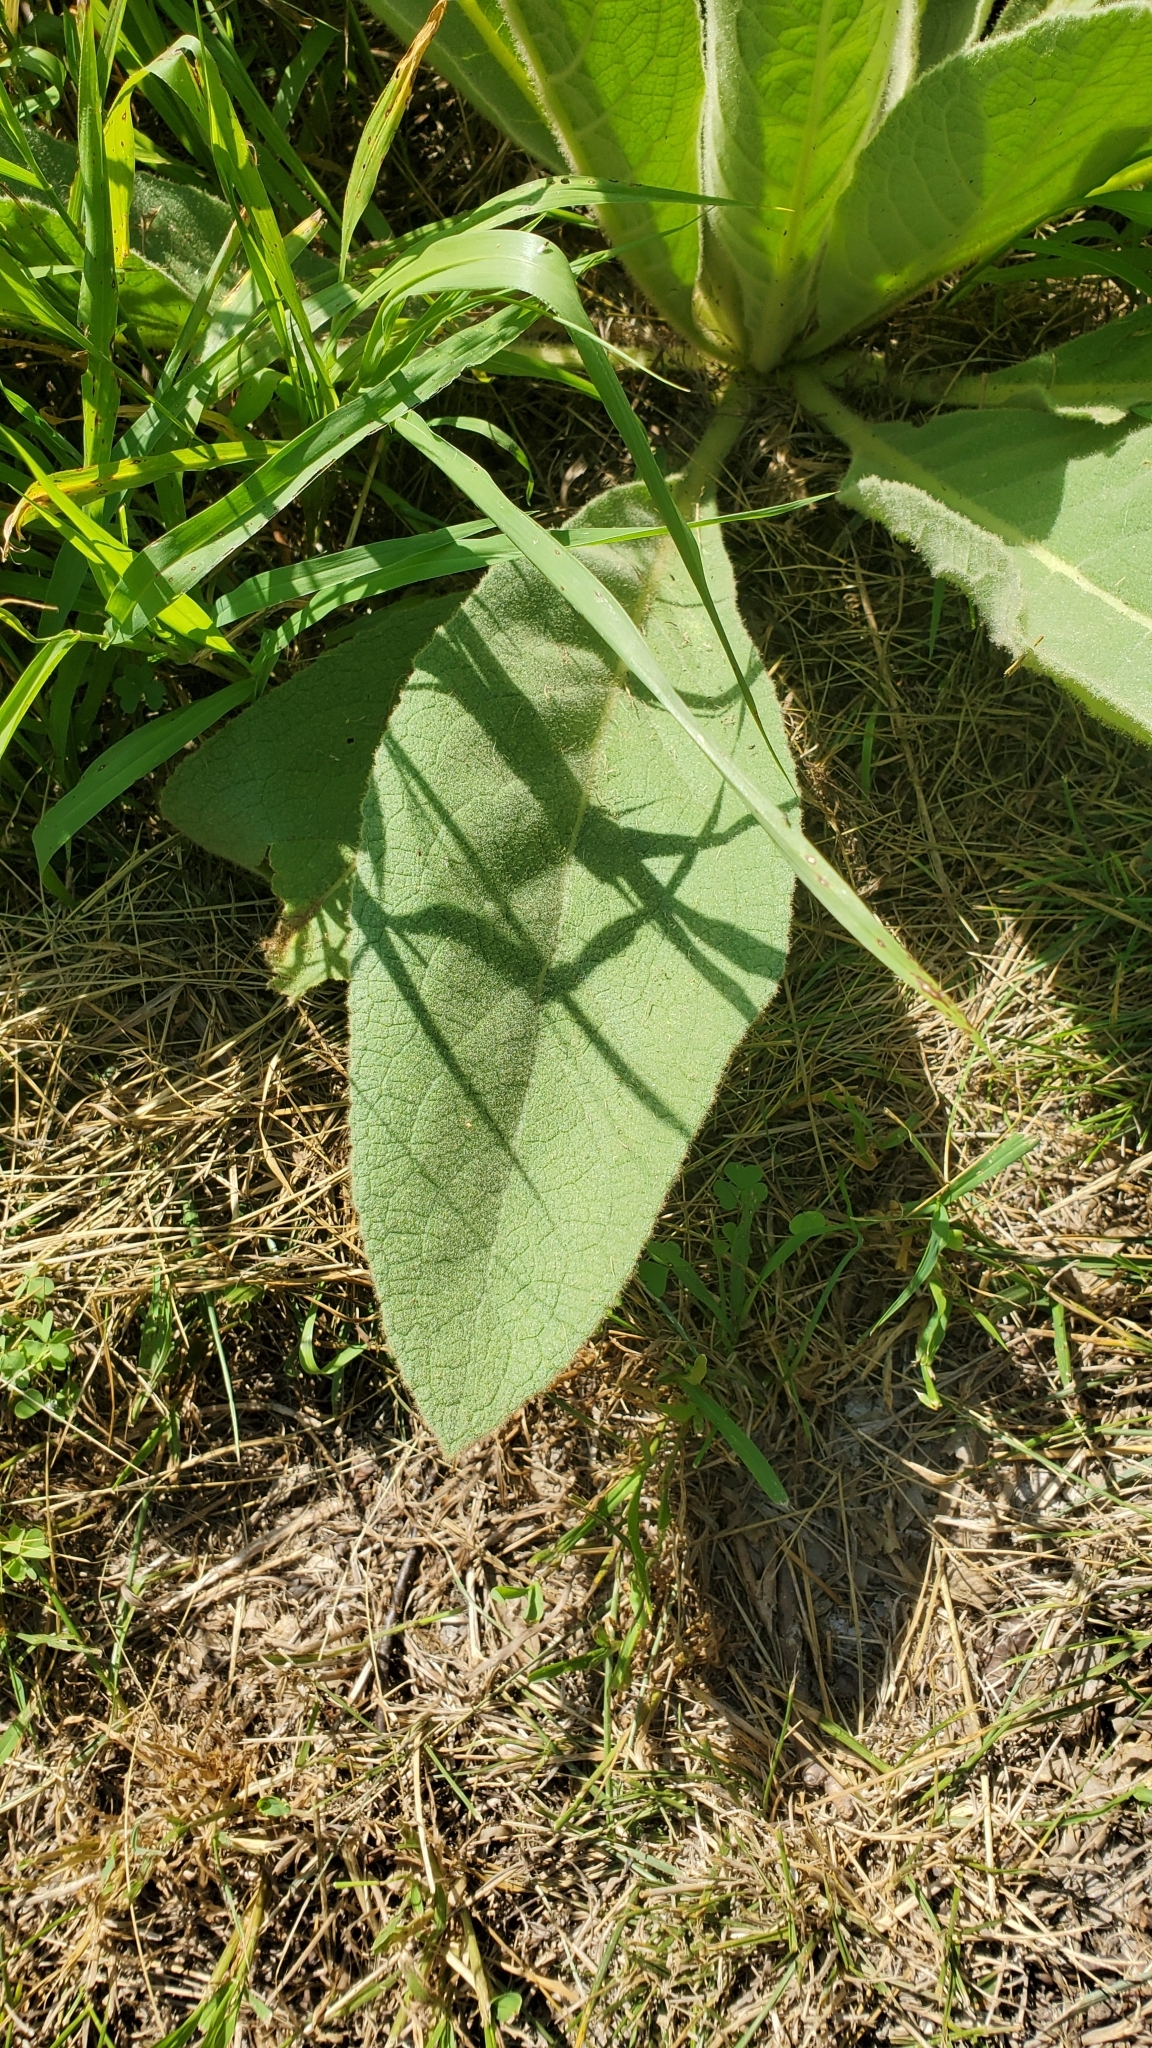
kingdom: Plantae
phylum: Tracheophyta
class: Magnoliopsida
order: Lamiales
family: Scrophulariaceae
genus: Verbascum
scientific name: Verbascum thapsus
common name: Common mullein
